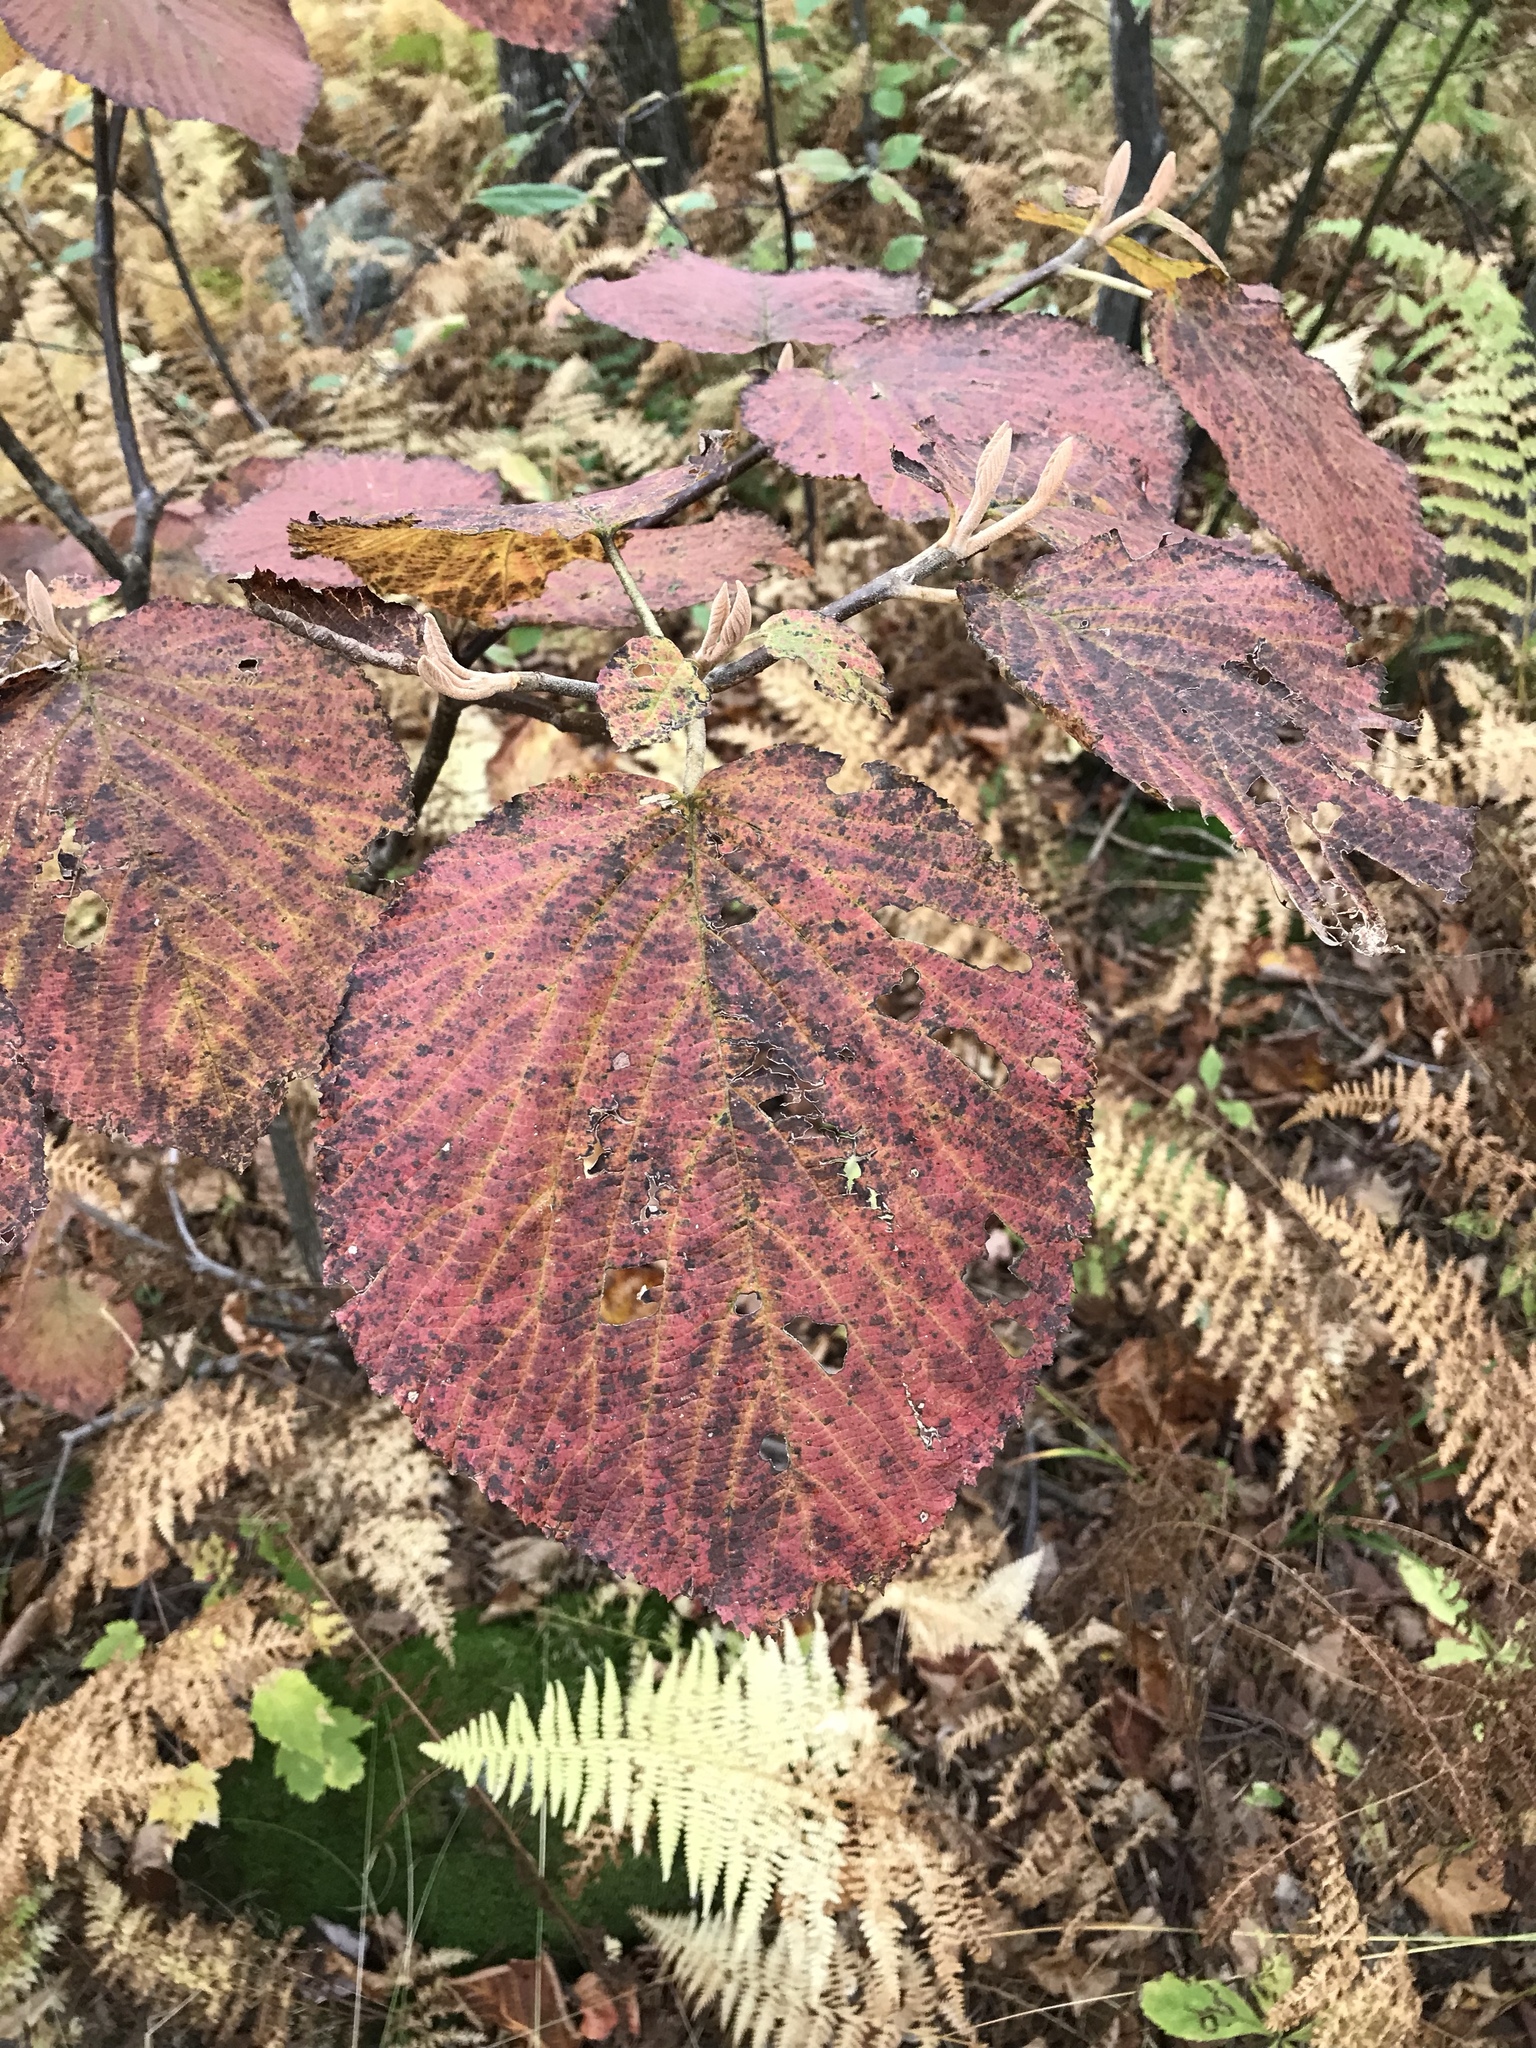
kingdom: Plantae
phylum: Tracheophyta
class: Magnoliopsida
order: Dipsacales
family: Viburnaceae
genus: Viburnum
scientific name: Viburnum lantanoides
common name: Hobblebush
